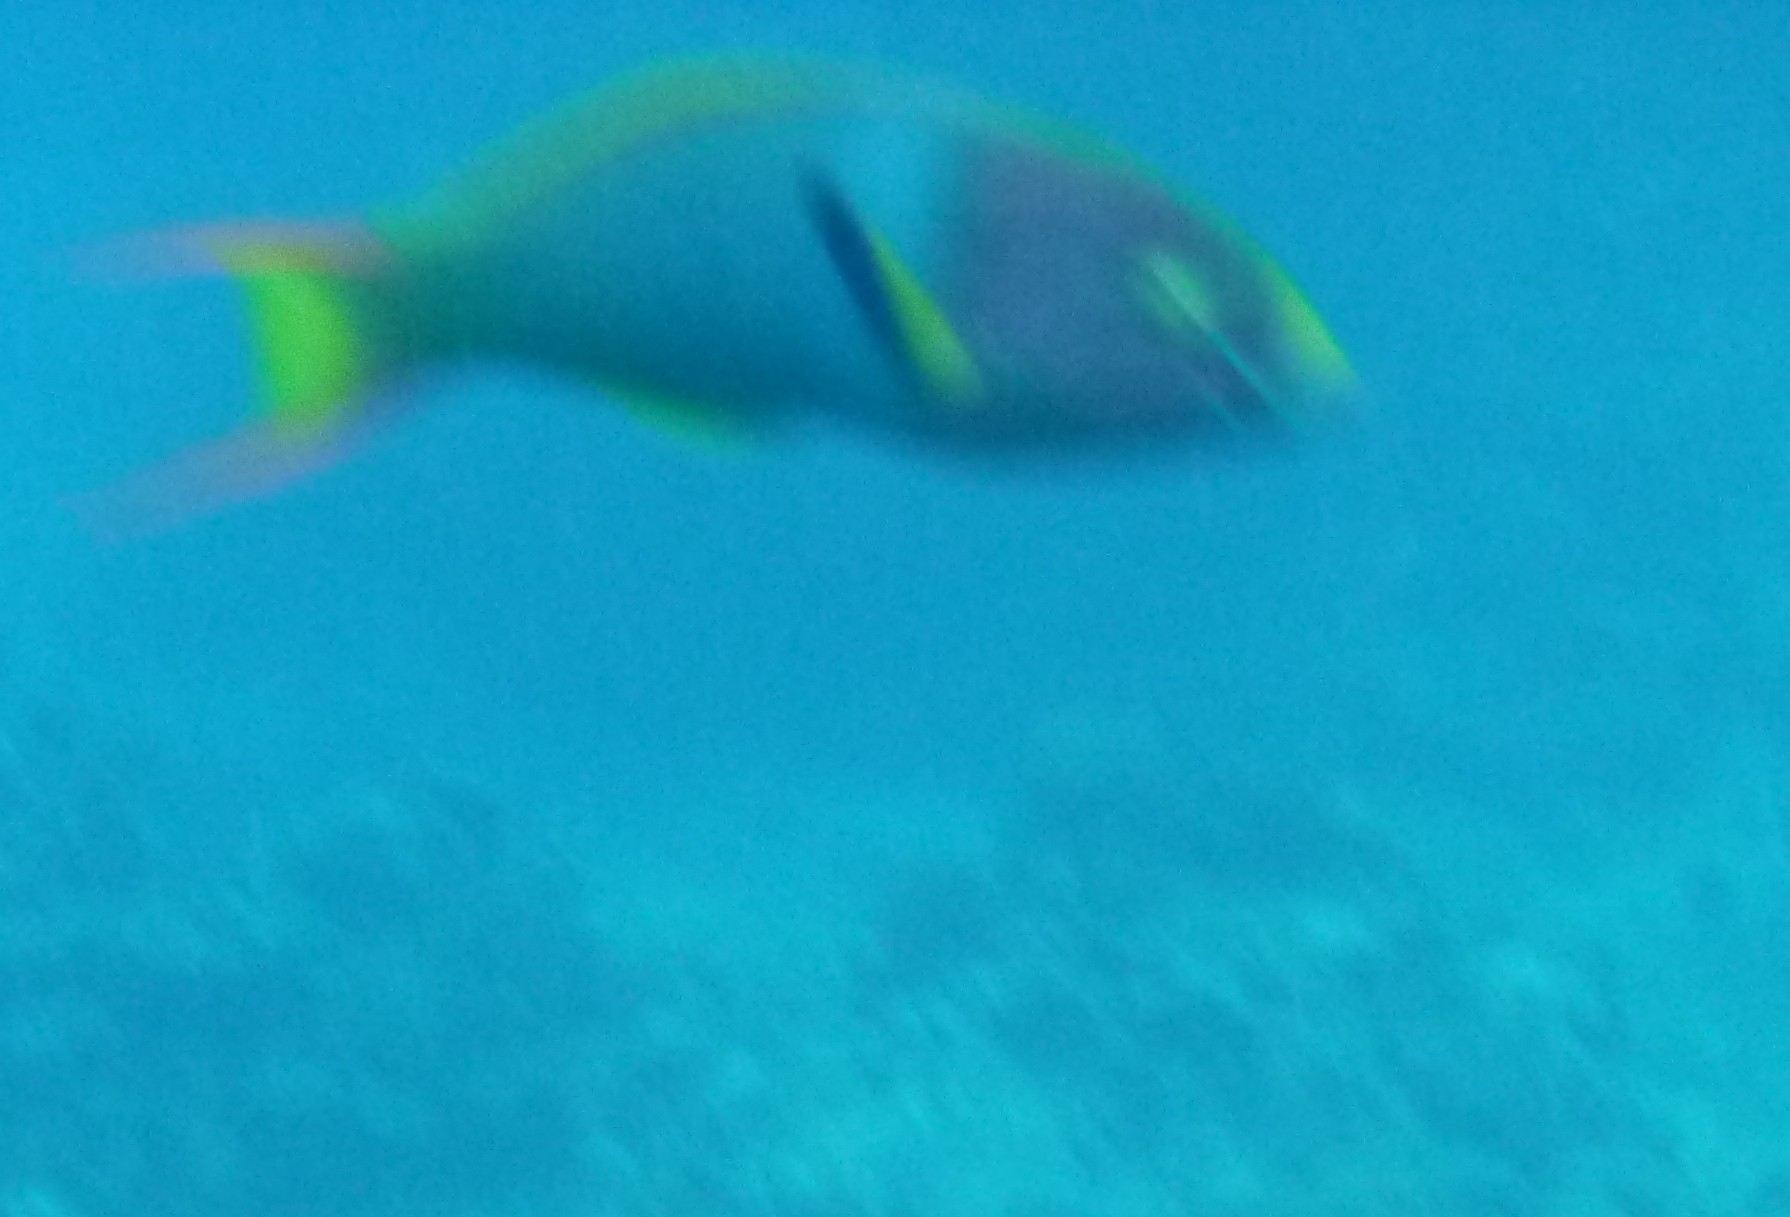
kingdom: Animalia
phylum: Chordata
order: Perciformes
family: Labridae
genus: Thalassoma
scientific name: Thalassoma lutescens
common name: Green moon wrasse
